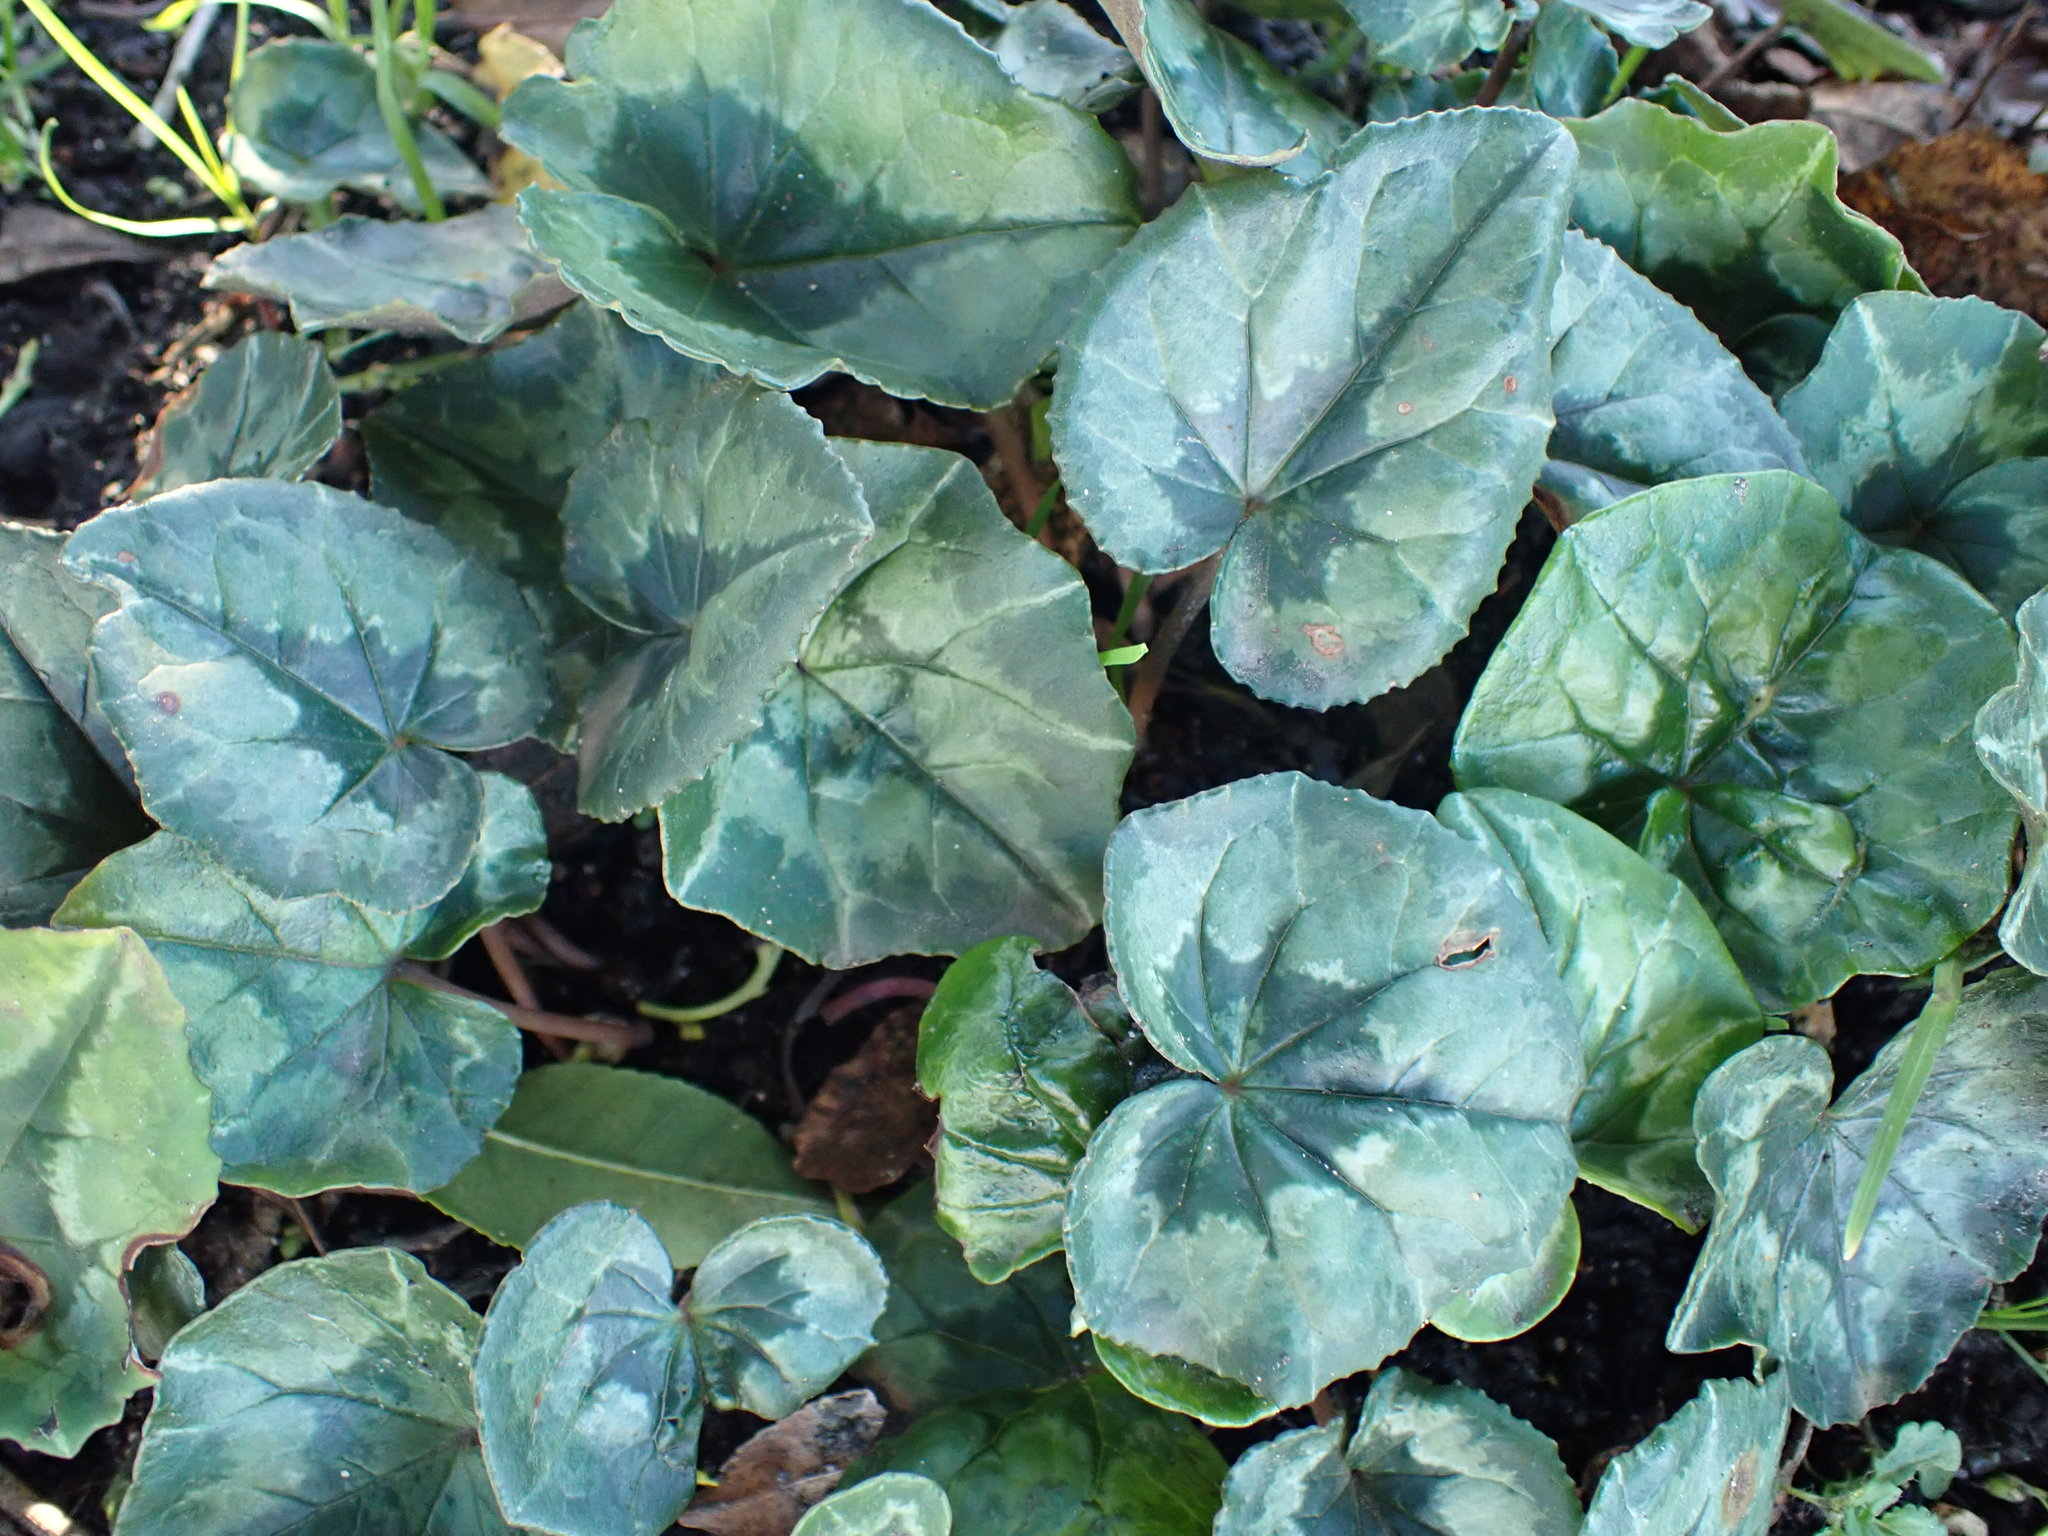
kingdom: Plantae
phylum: Tracheophyta
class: Magnoliopsida
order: Ericales
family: Primulaceae
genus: Cyclamen
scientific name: Cyclamen hederifolium
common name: Sowbread
